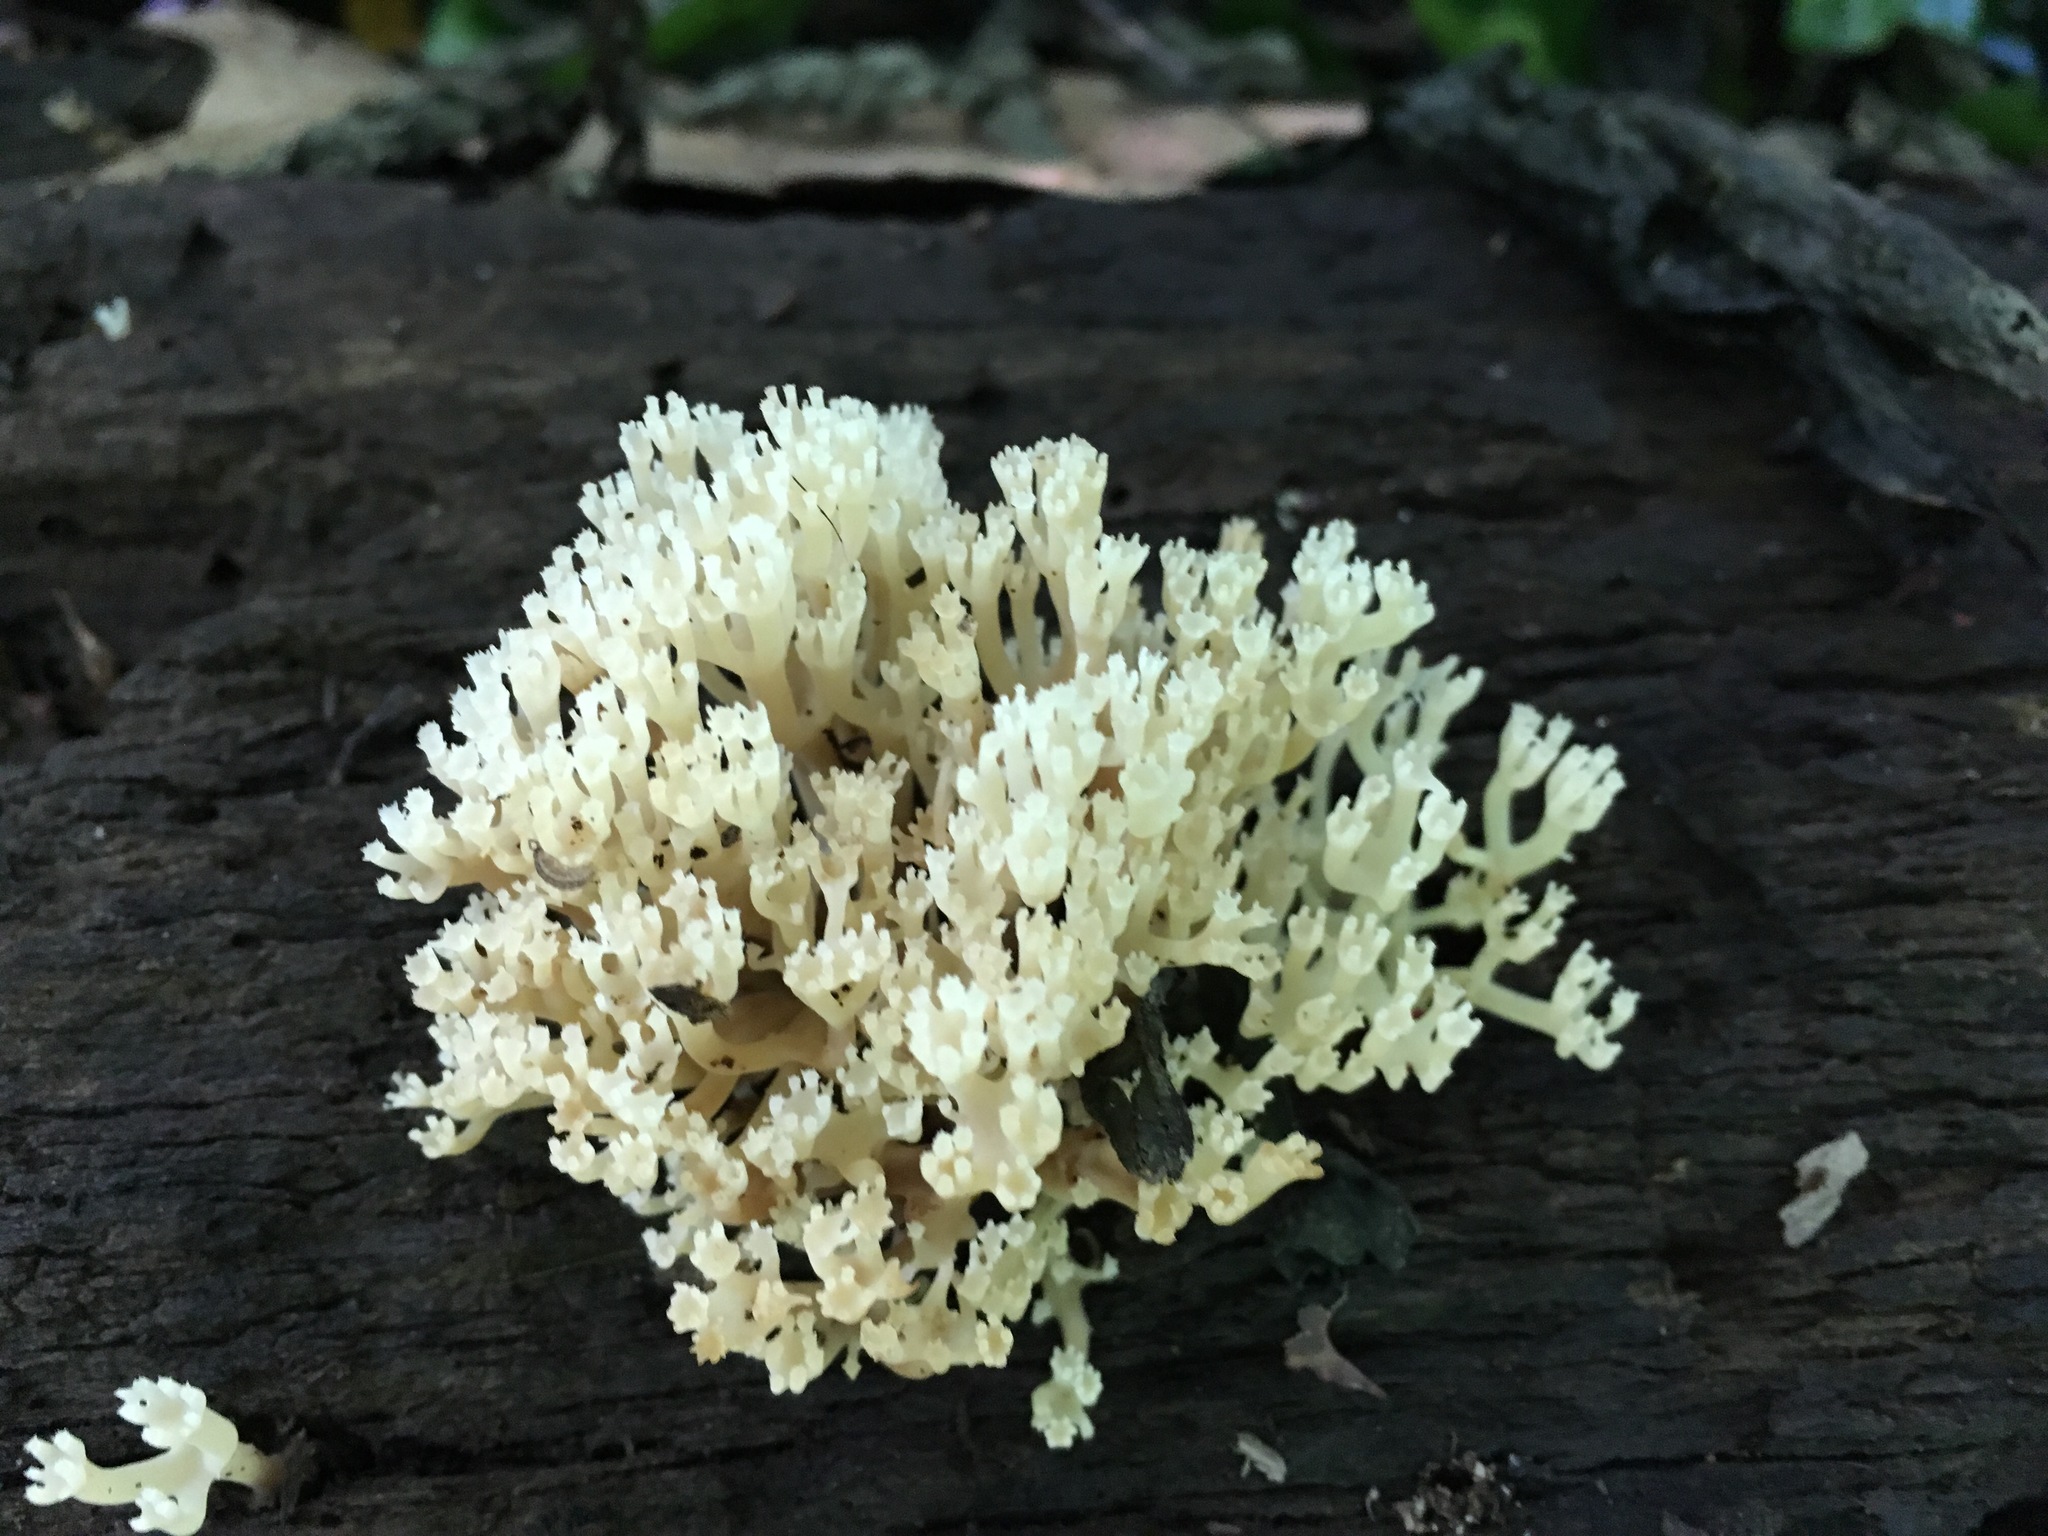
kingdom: Fungi
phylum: Basidiomycota
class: Agaricomycetes
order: Russulales
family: Auriscalpiaceae
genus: Artomyces
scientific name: Artomyces pyxidatus
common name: Crown-tipped coral fungus
